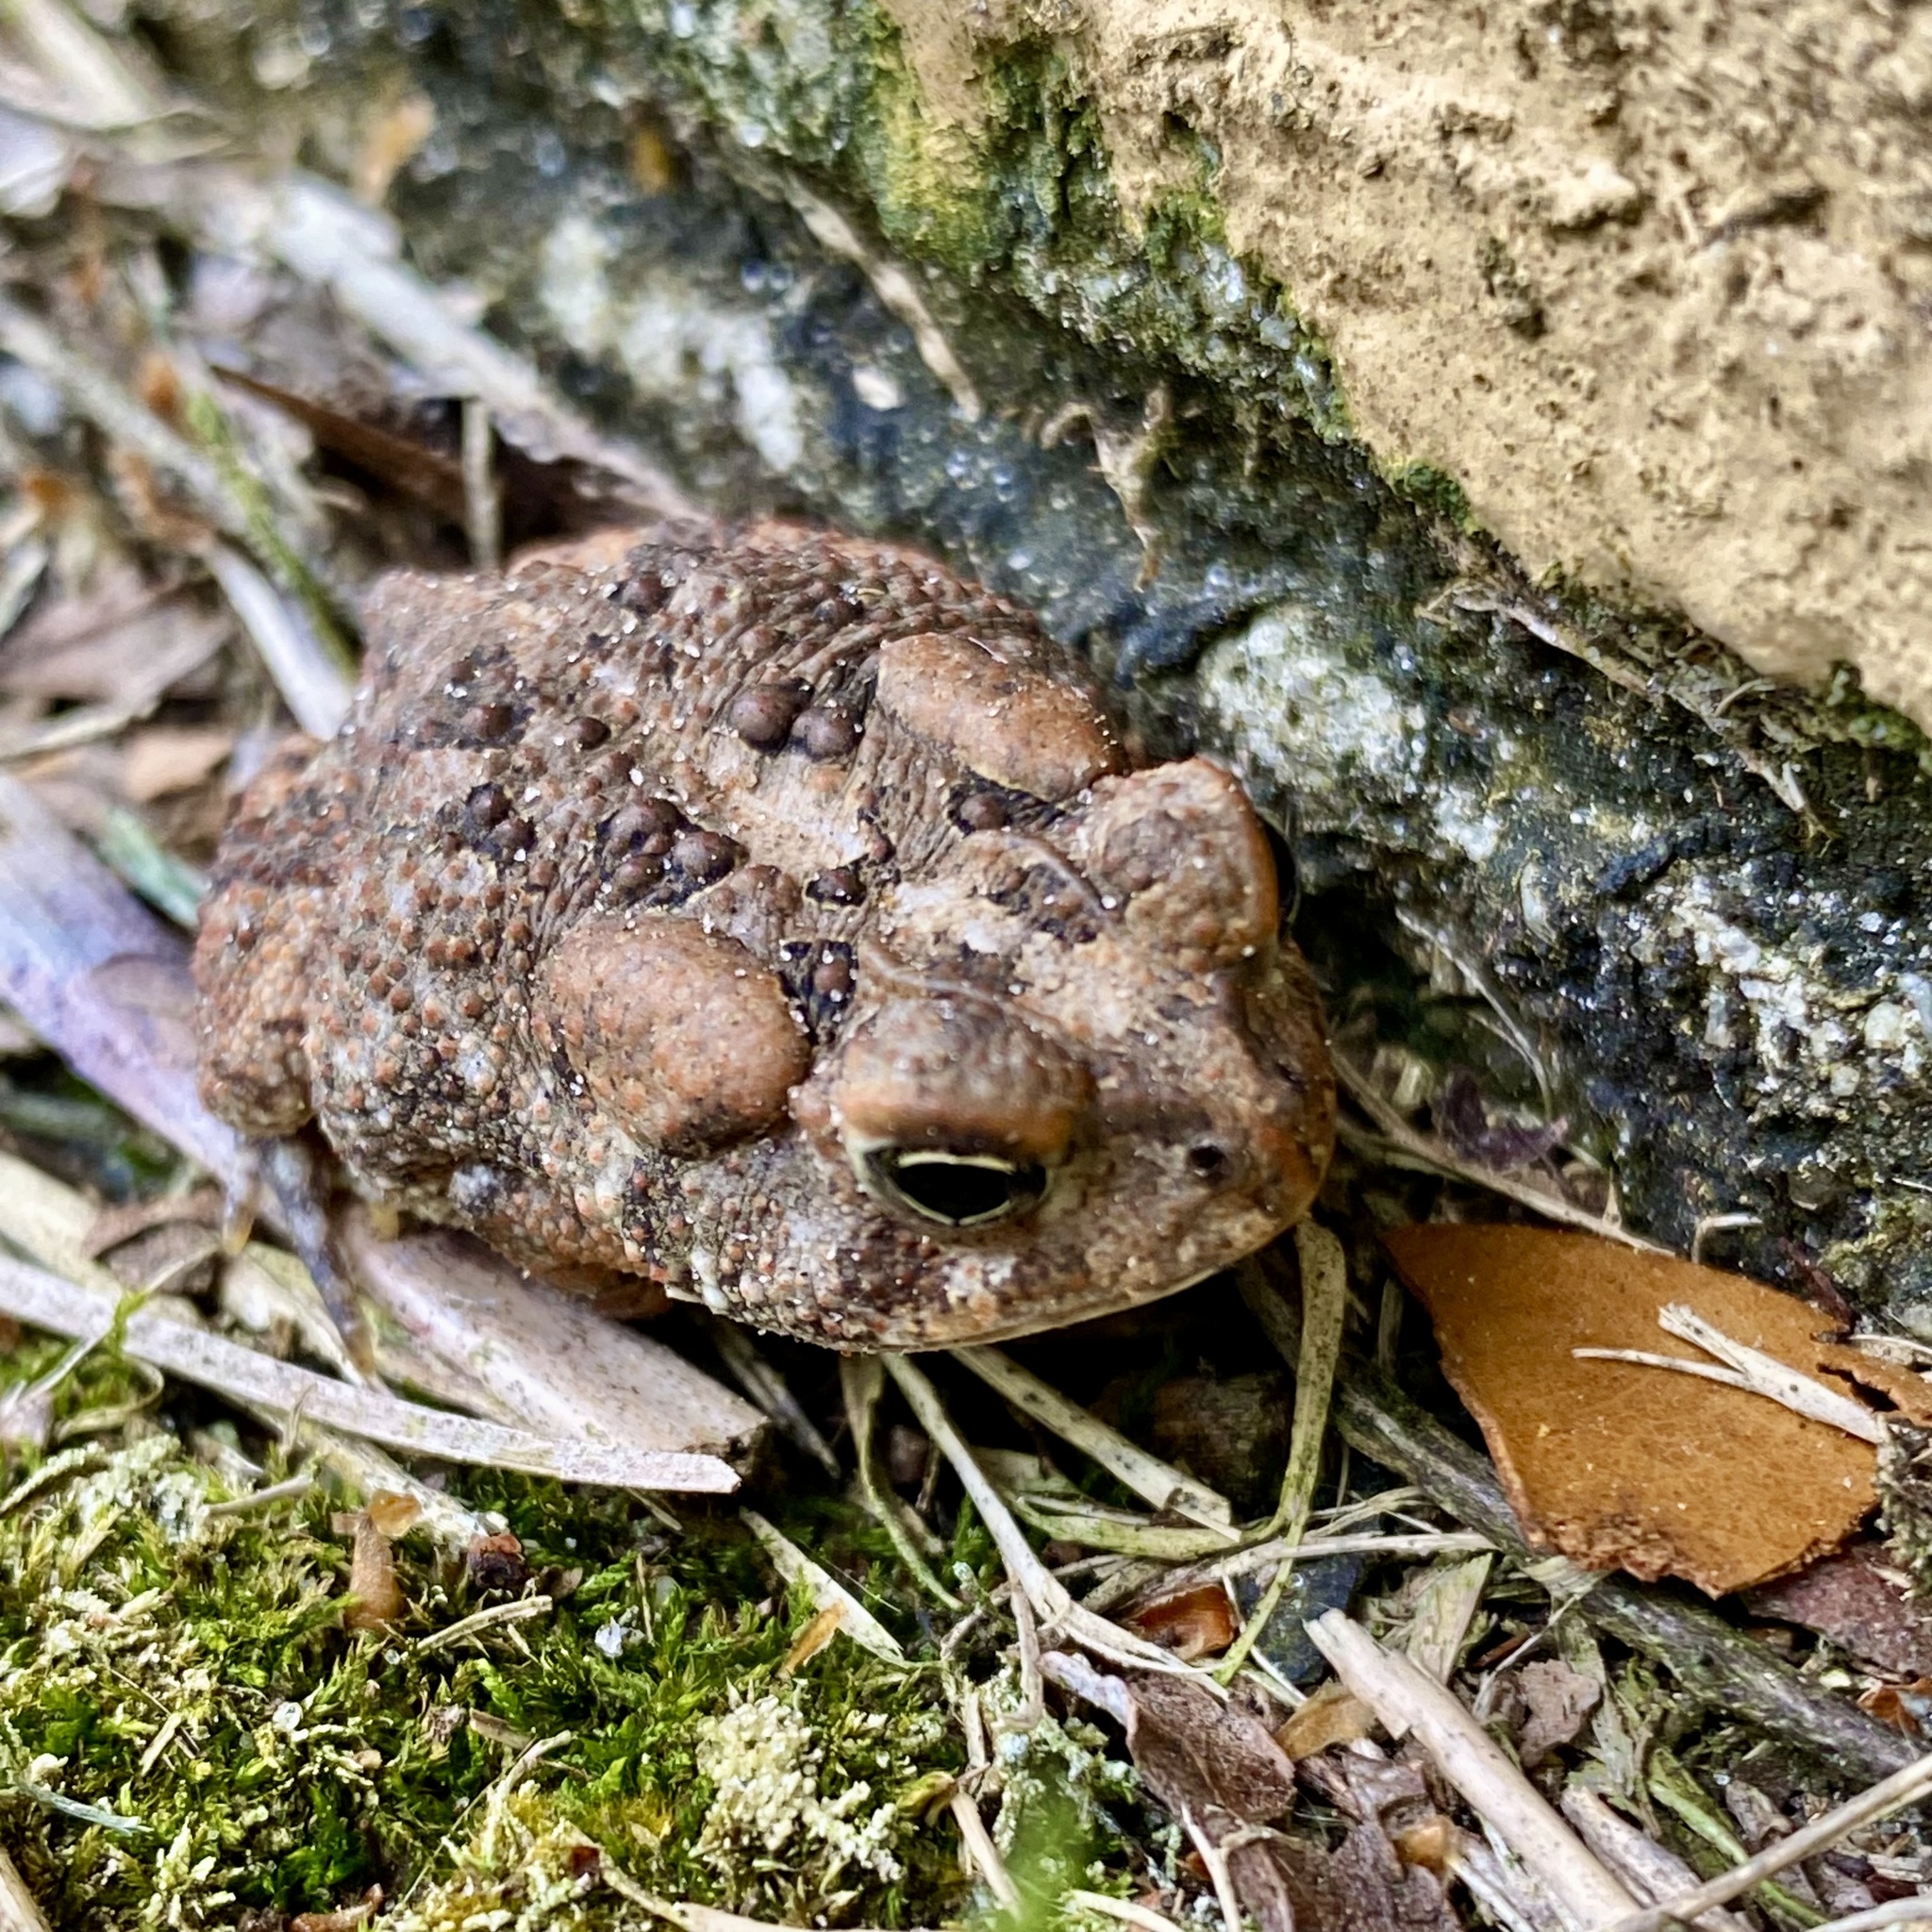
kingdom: Animalia
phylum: Chordata
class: Amphibia
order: Anura
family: Bufonidae
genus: Anaxyrus
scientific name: Anaxyrus terrestris
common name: Southern toad
